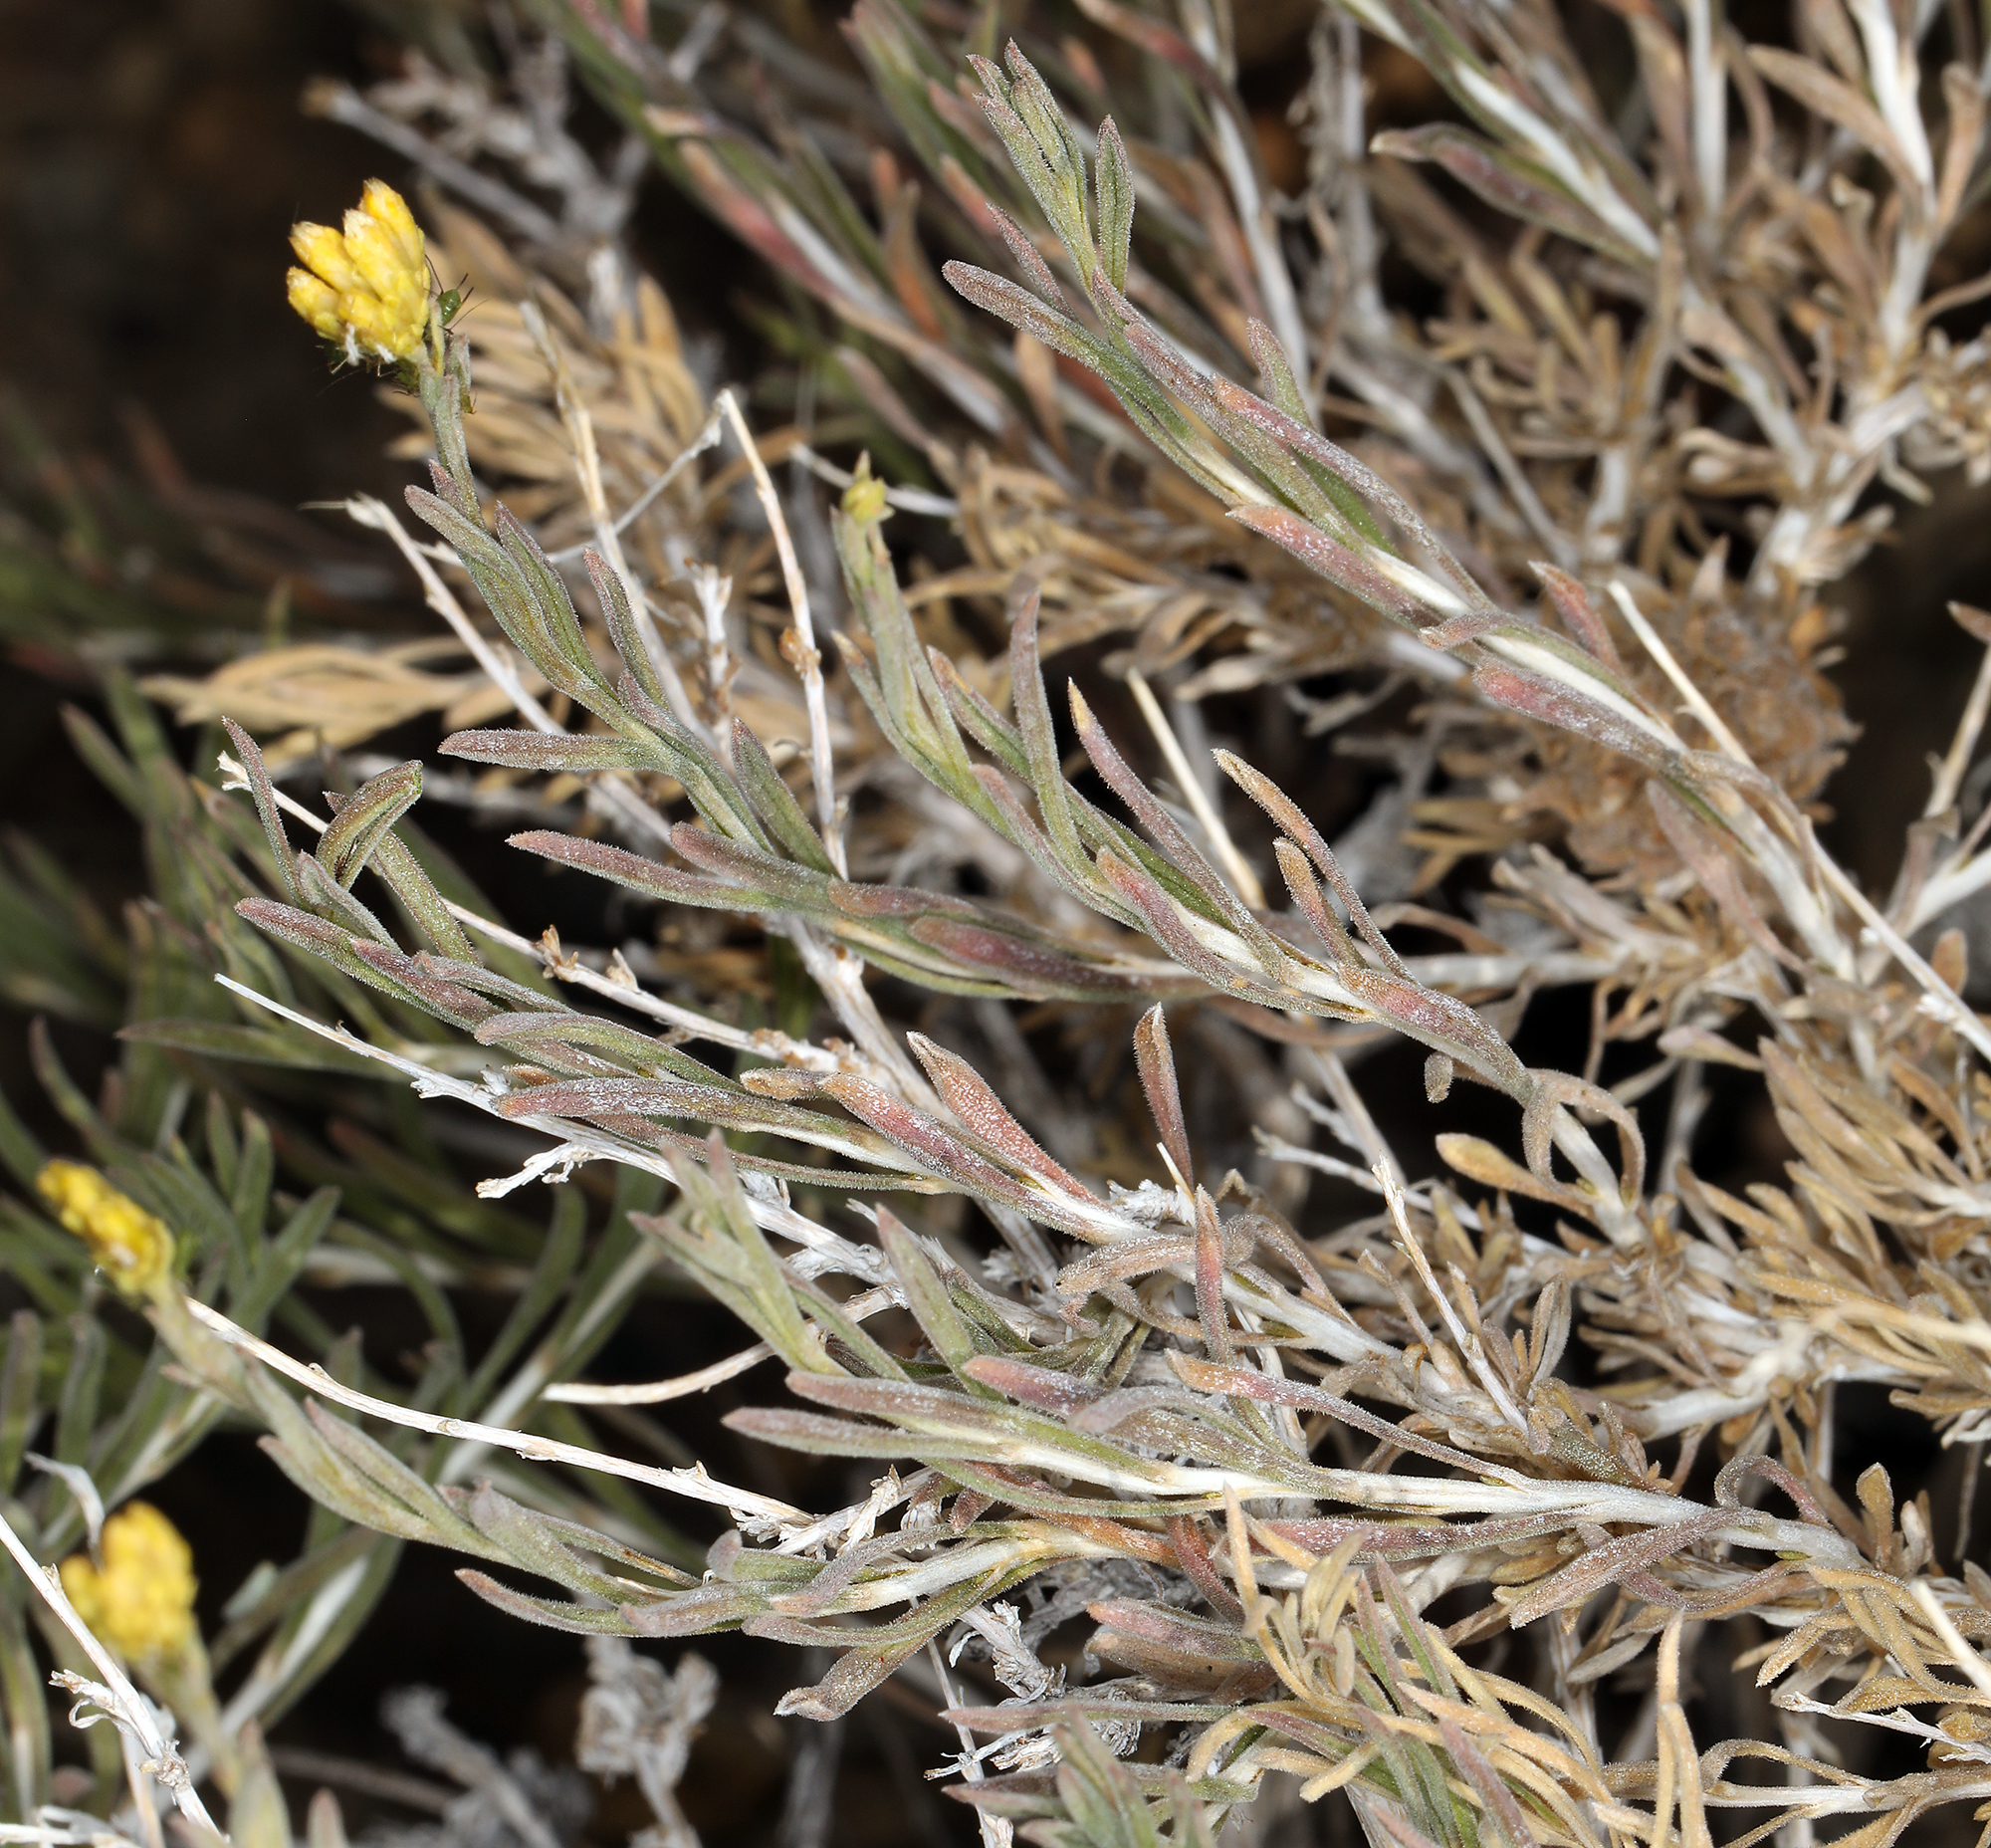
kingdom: Plantae
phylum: Tracheophyta
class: Magnoliopsida
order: Asterales
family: Asteraceae
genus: Chrysothamnus
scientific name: Chrysothamnus viscidiflorus
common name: Yellow rabbitbrush
